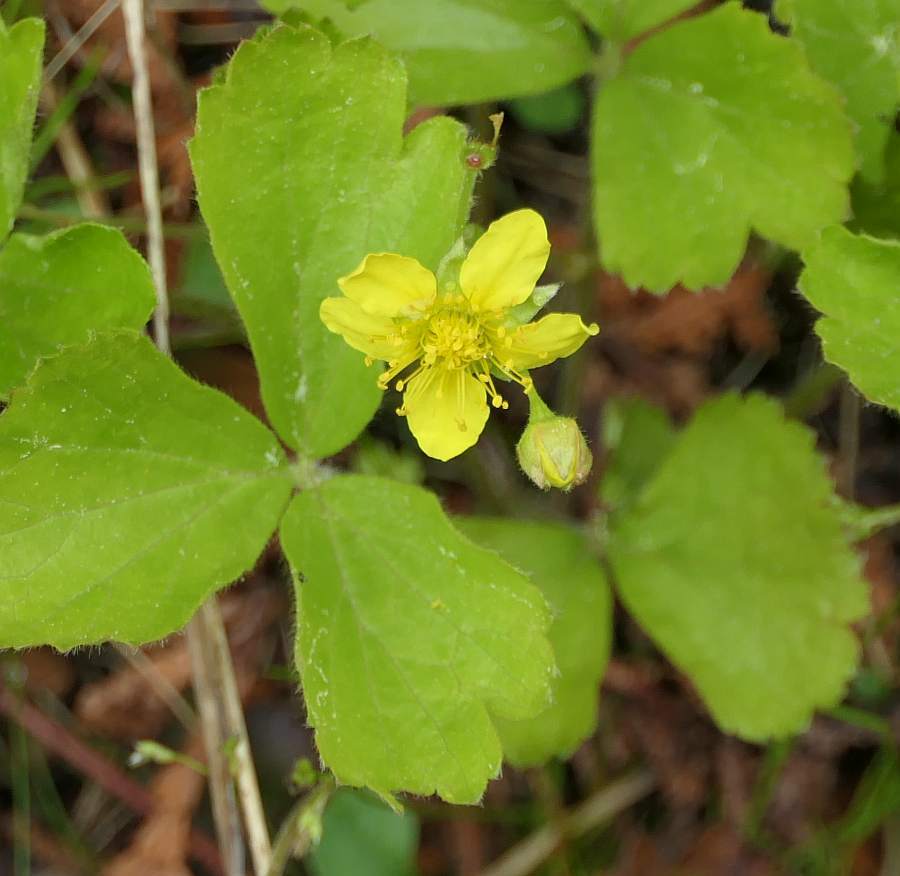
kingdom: Plantae
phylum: Tracheophyta
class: Magnoliopsida
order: Rosales
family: Rosaceae
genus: Geum
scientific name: Geum fragarioides
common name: Appalachian barren strawberry
